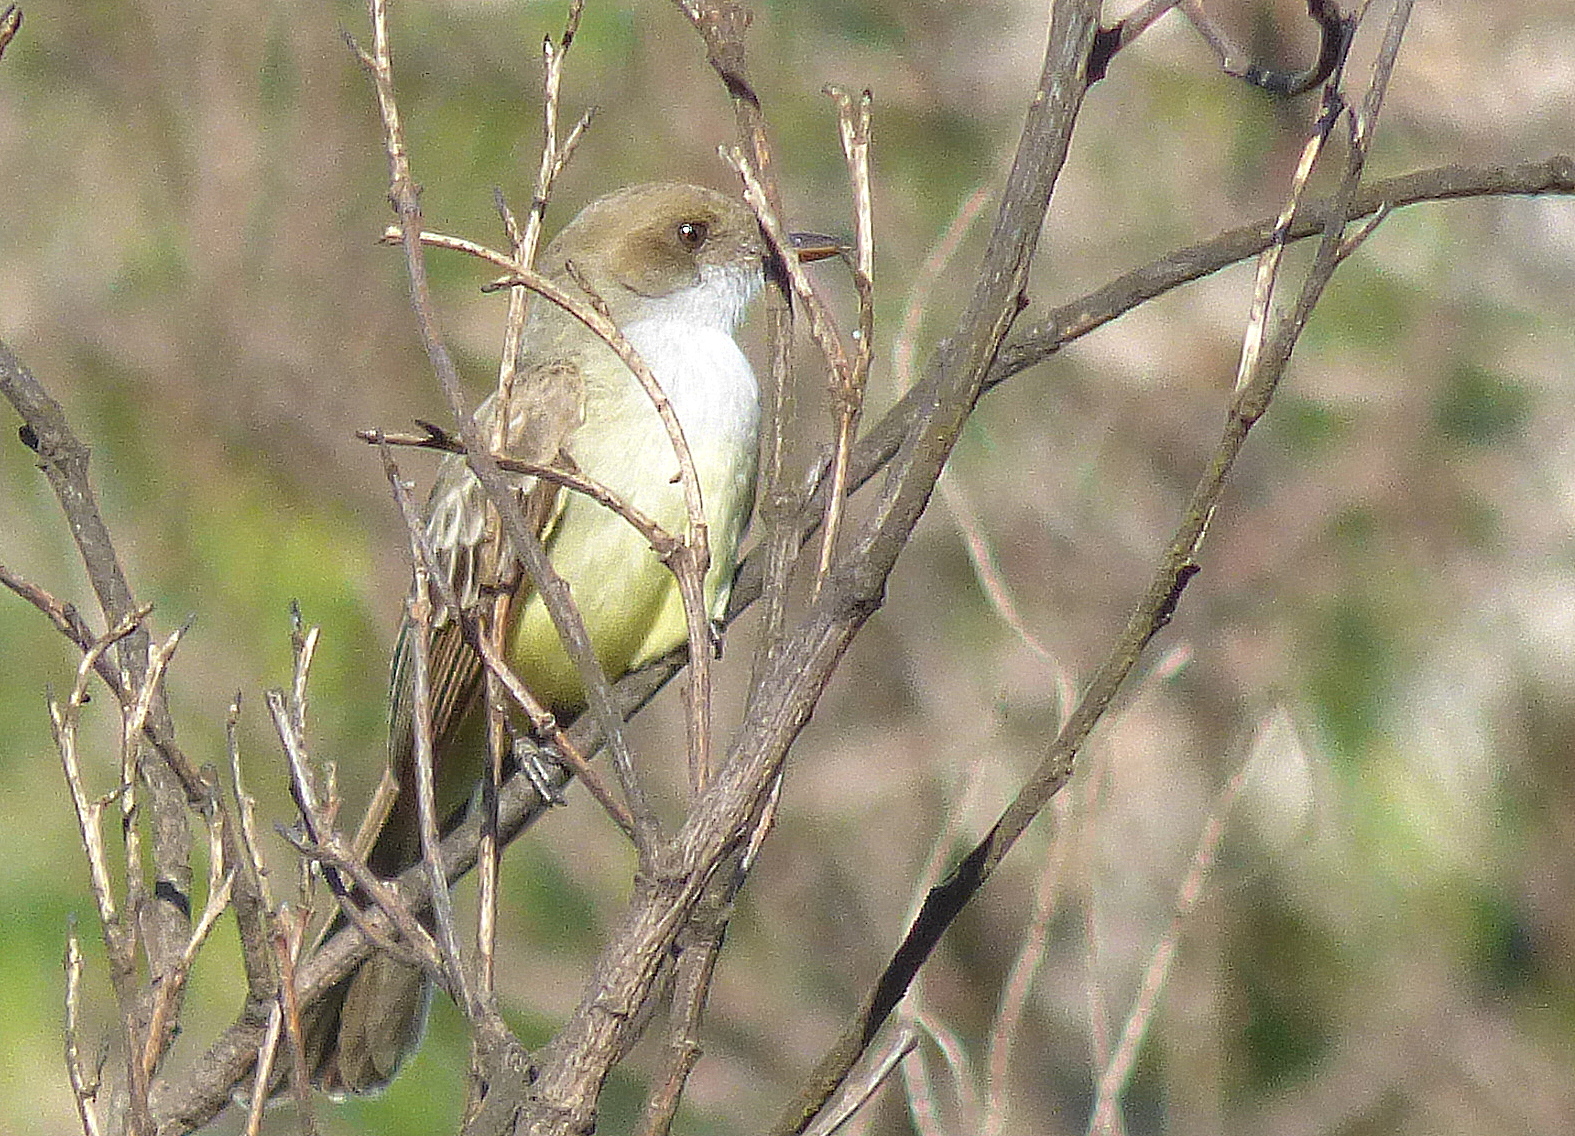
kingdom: Animalia
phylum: Chordata
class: Aves
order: Passeriformes
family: Tyrannidae
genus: Myiarchus
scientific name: Myiarchus swainsoni
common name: Swainson's flycatcher
